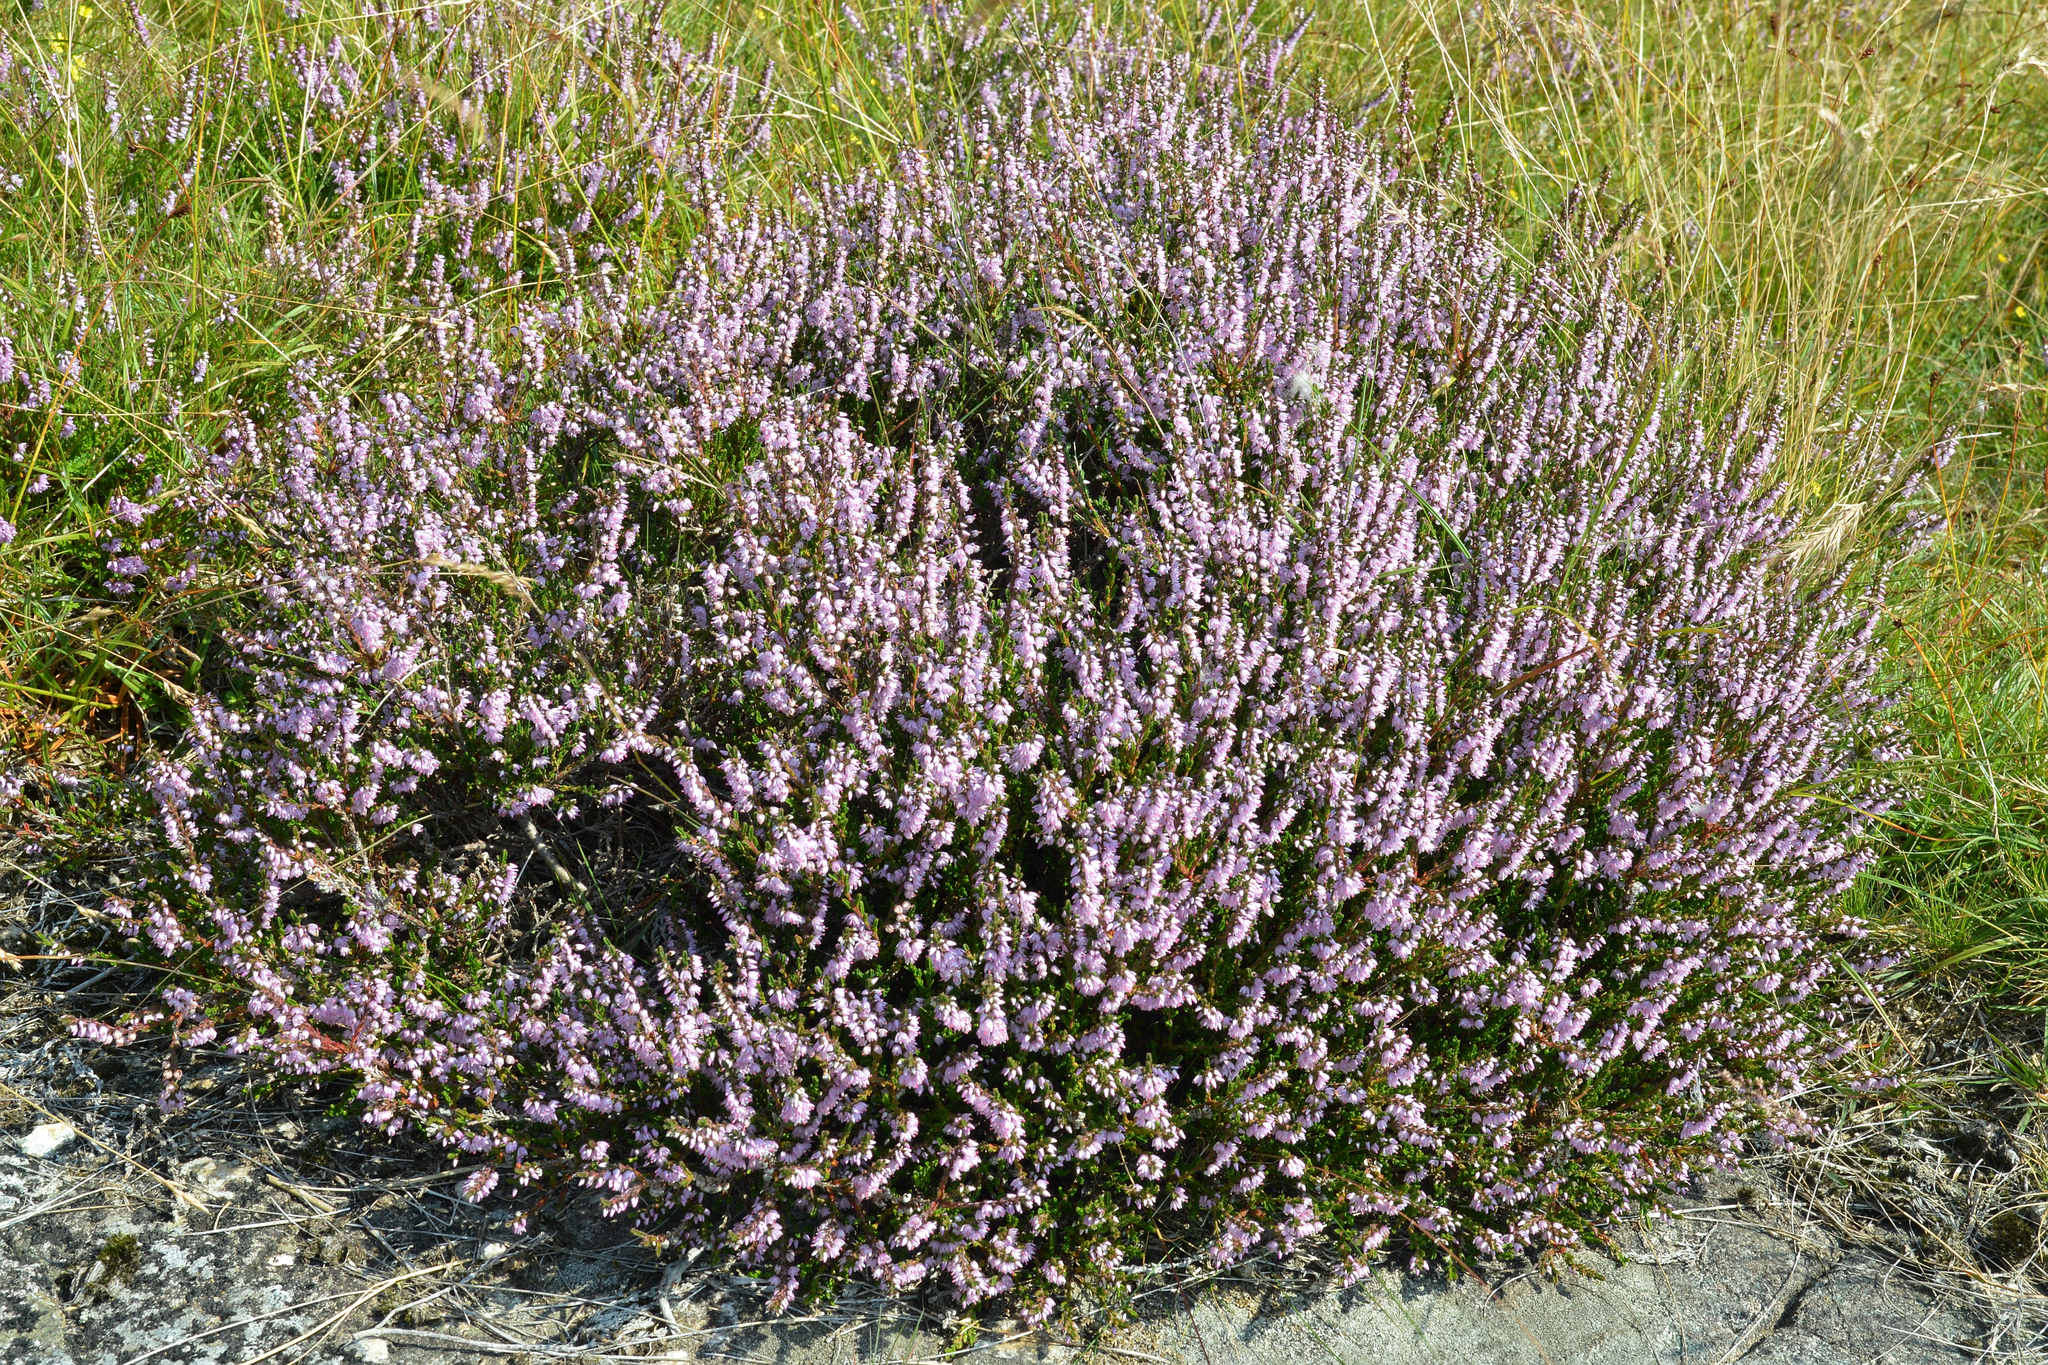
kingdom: Plantae
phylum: Tracheophyta
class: Magnoliopsida
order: Ericales
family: Ericaceae
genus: Calluna
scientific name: Calluna vulgaris
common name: Heather
